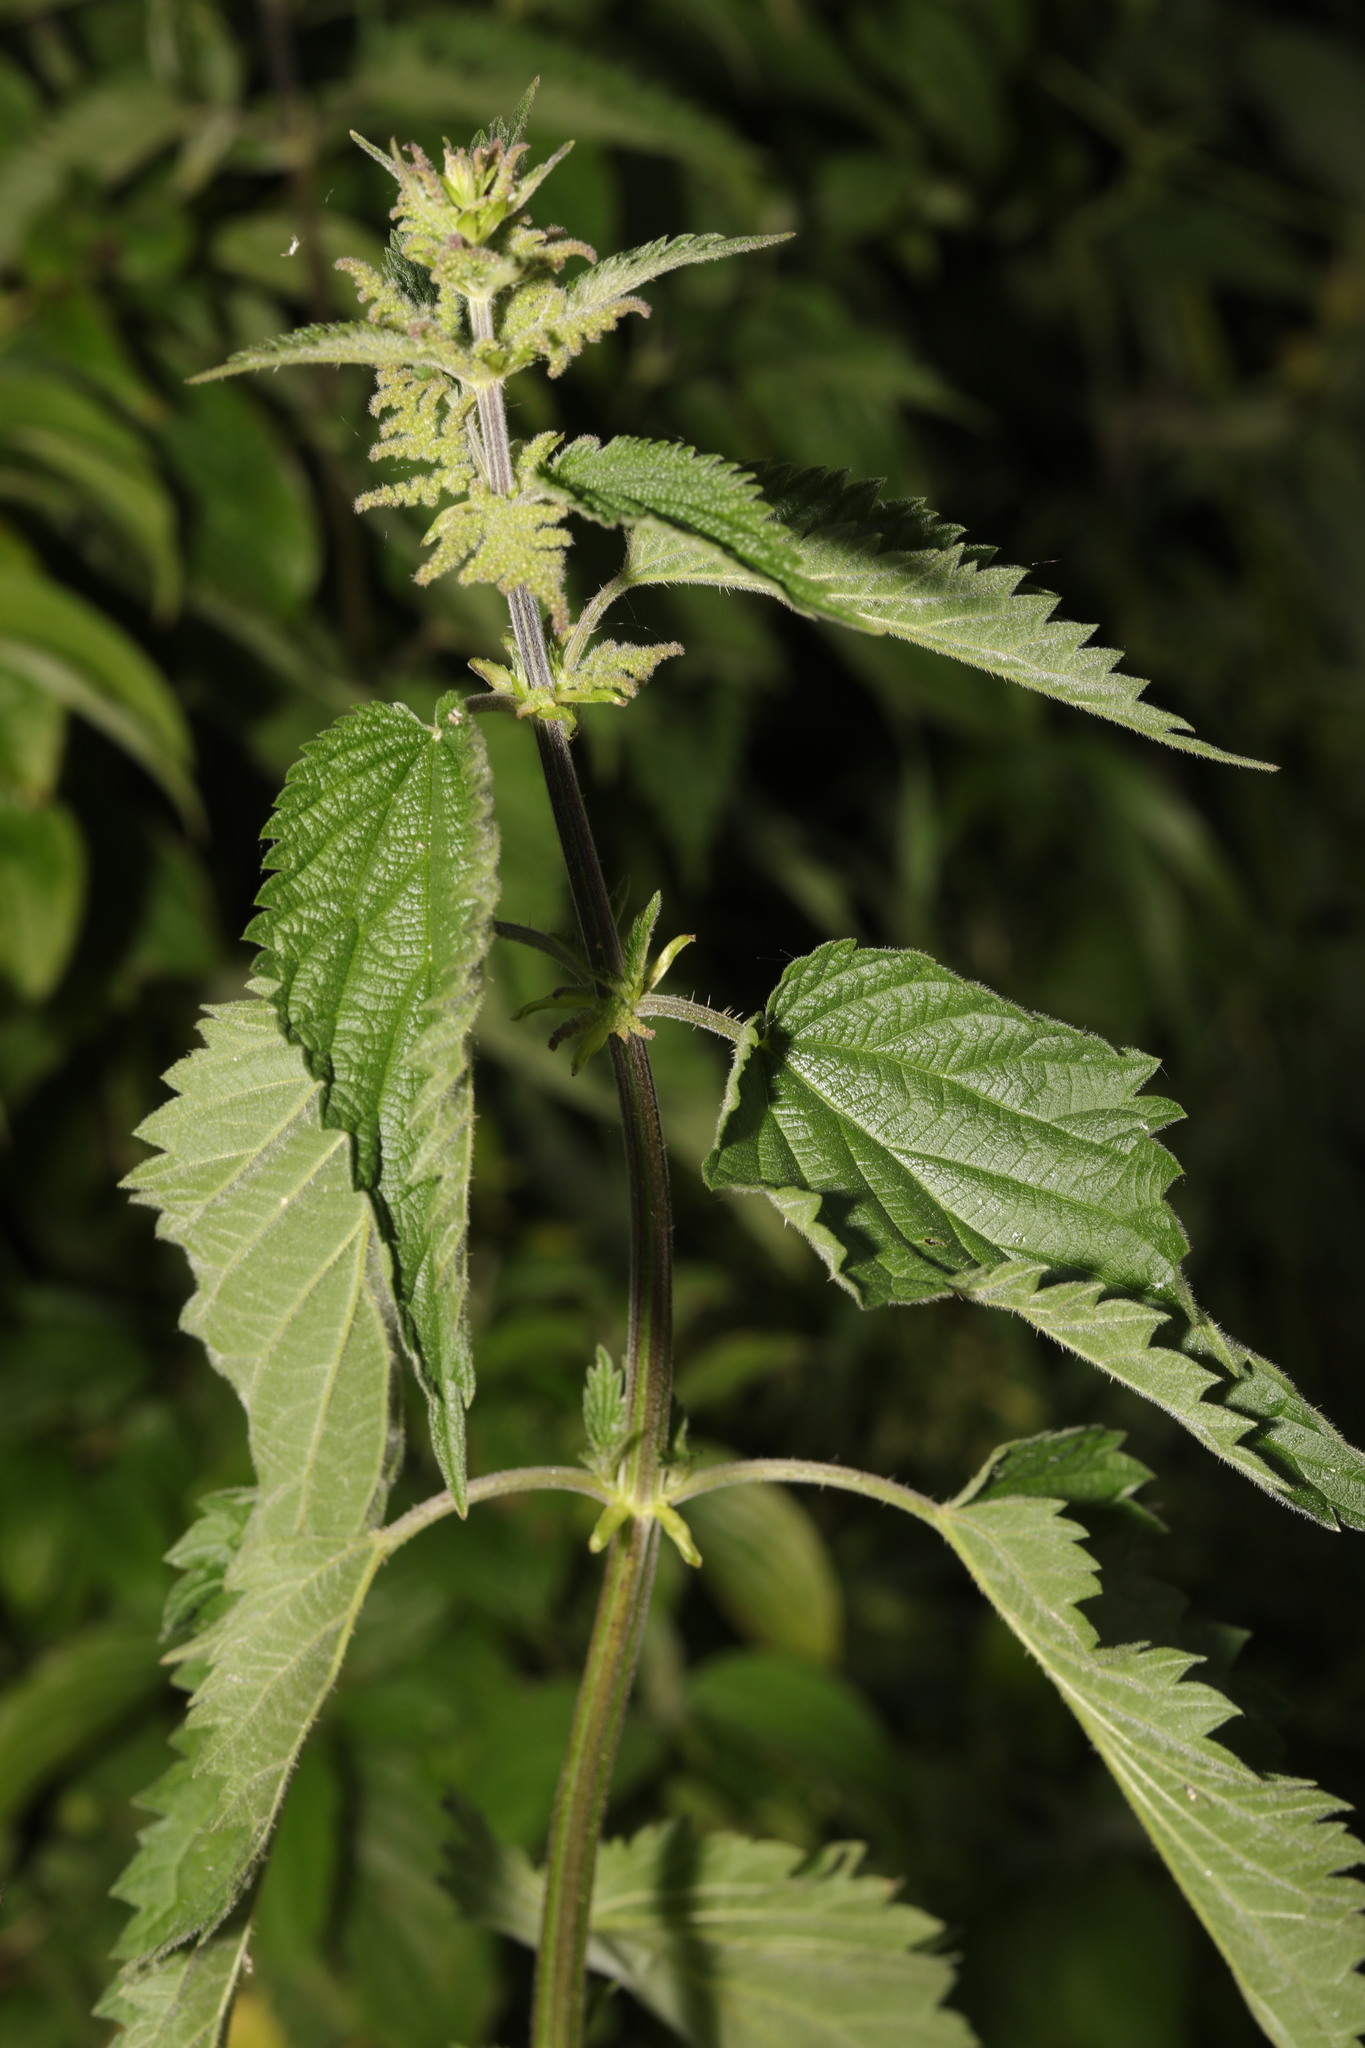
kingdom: Plantae
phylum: Tracheophyta
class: Magnoliopsida
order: Rosales
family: Urticaceae
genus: Urtica
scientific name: Urtica dioica
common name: Common nettle
